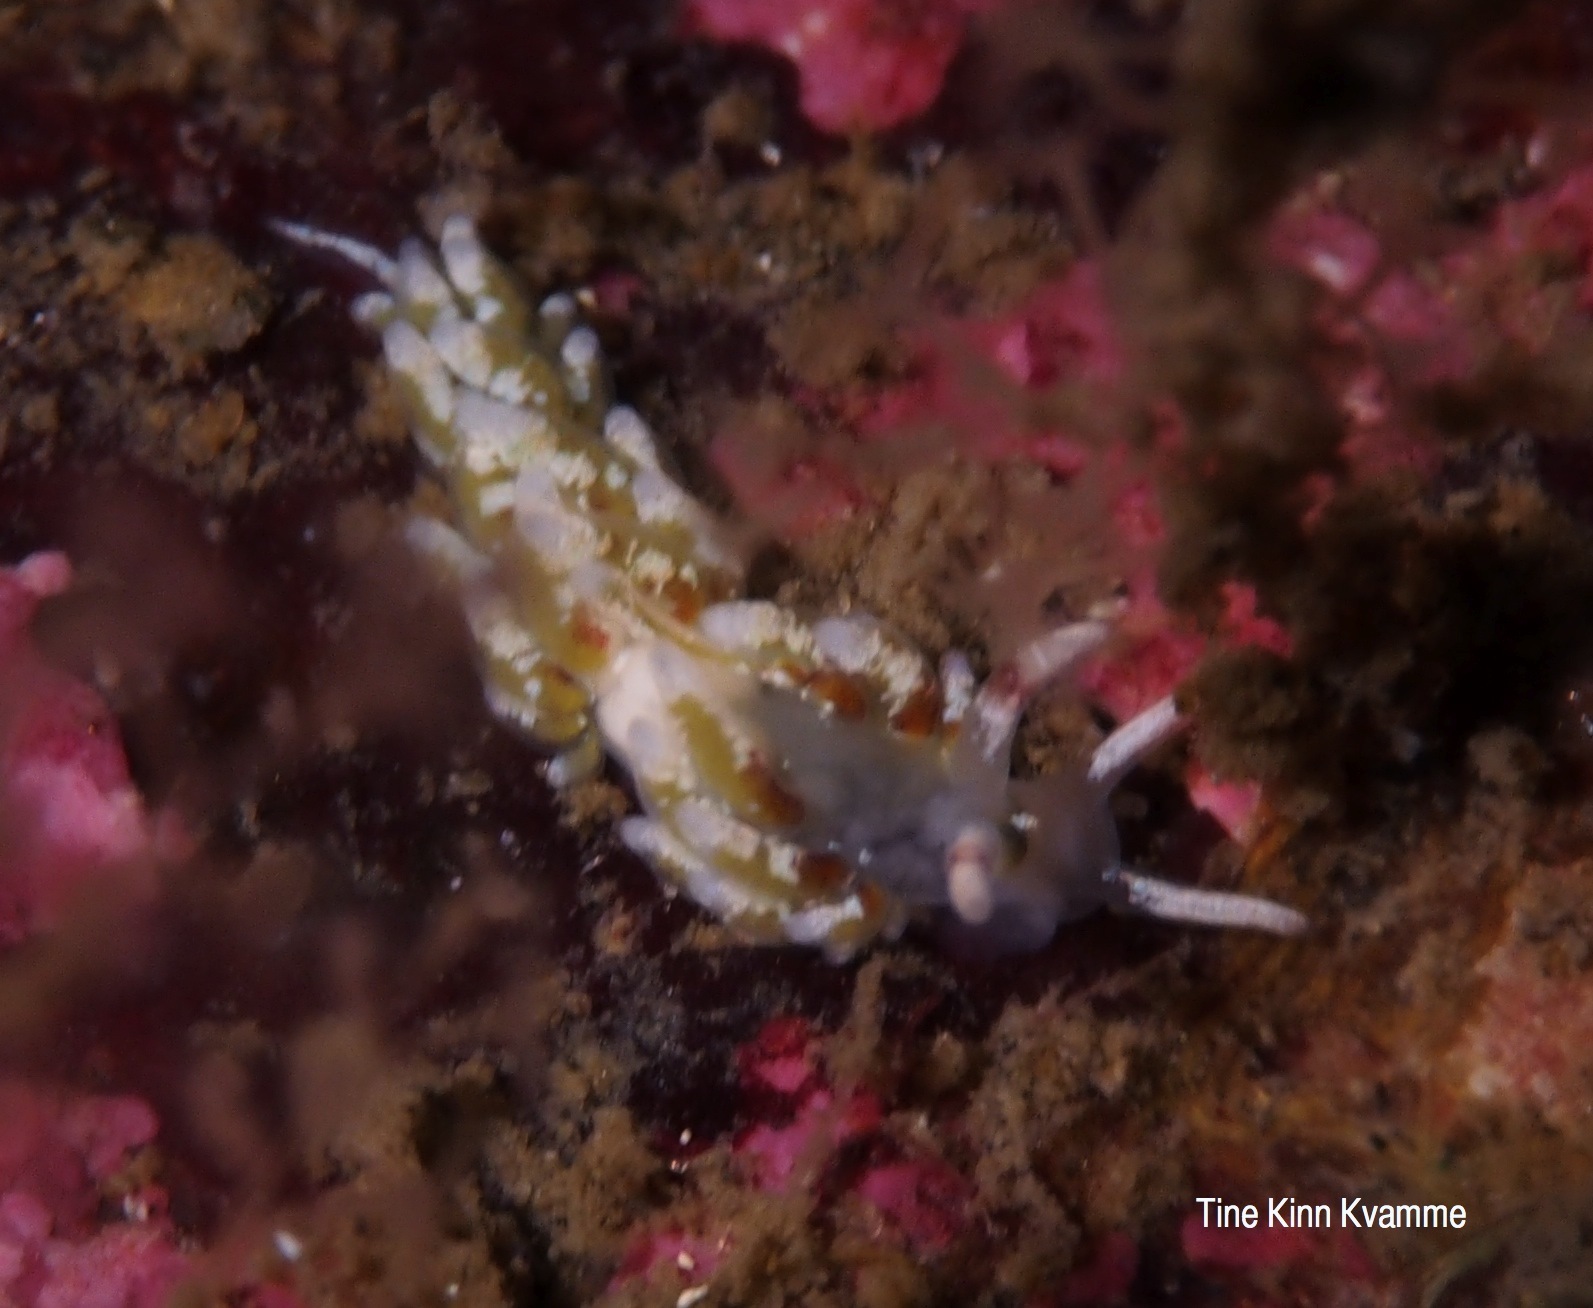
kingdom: Animalia
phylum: Mollusca
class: Gastropoda
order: Nudibranchia
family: Trinchesiidae
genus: Rubramoena
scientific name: Rubramoena rubescens
